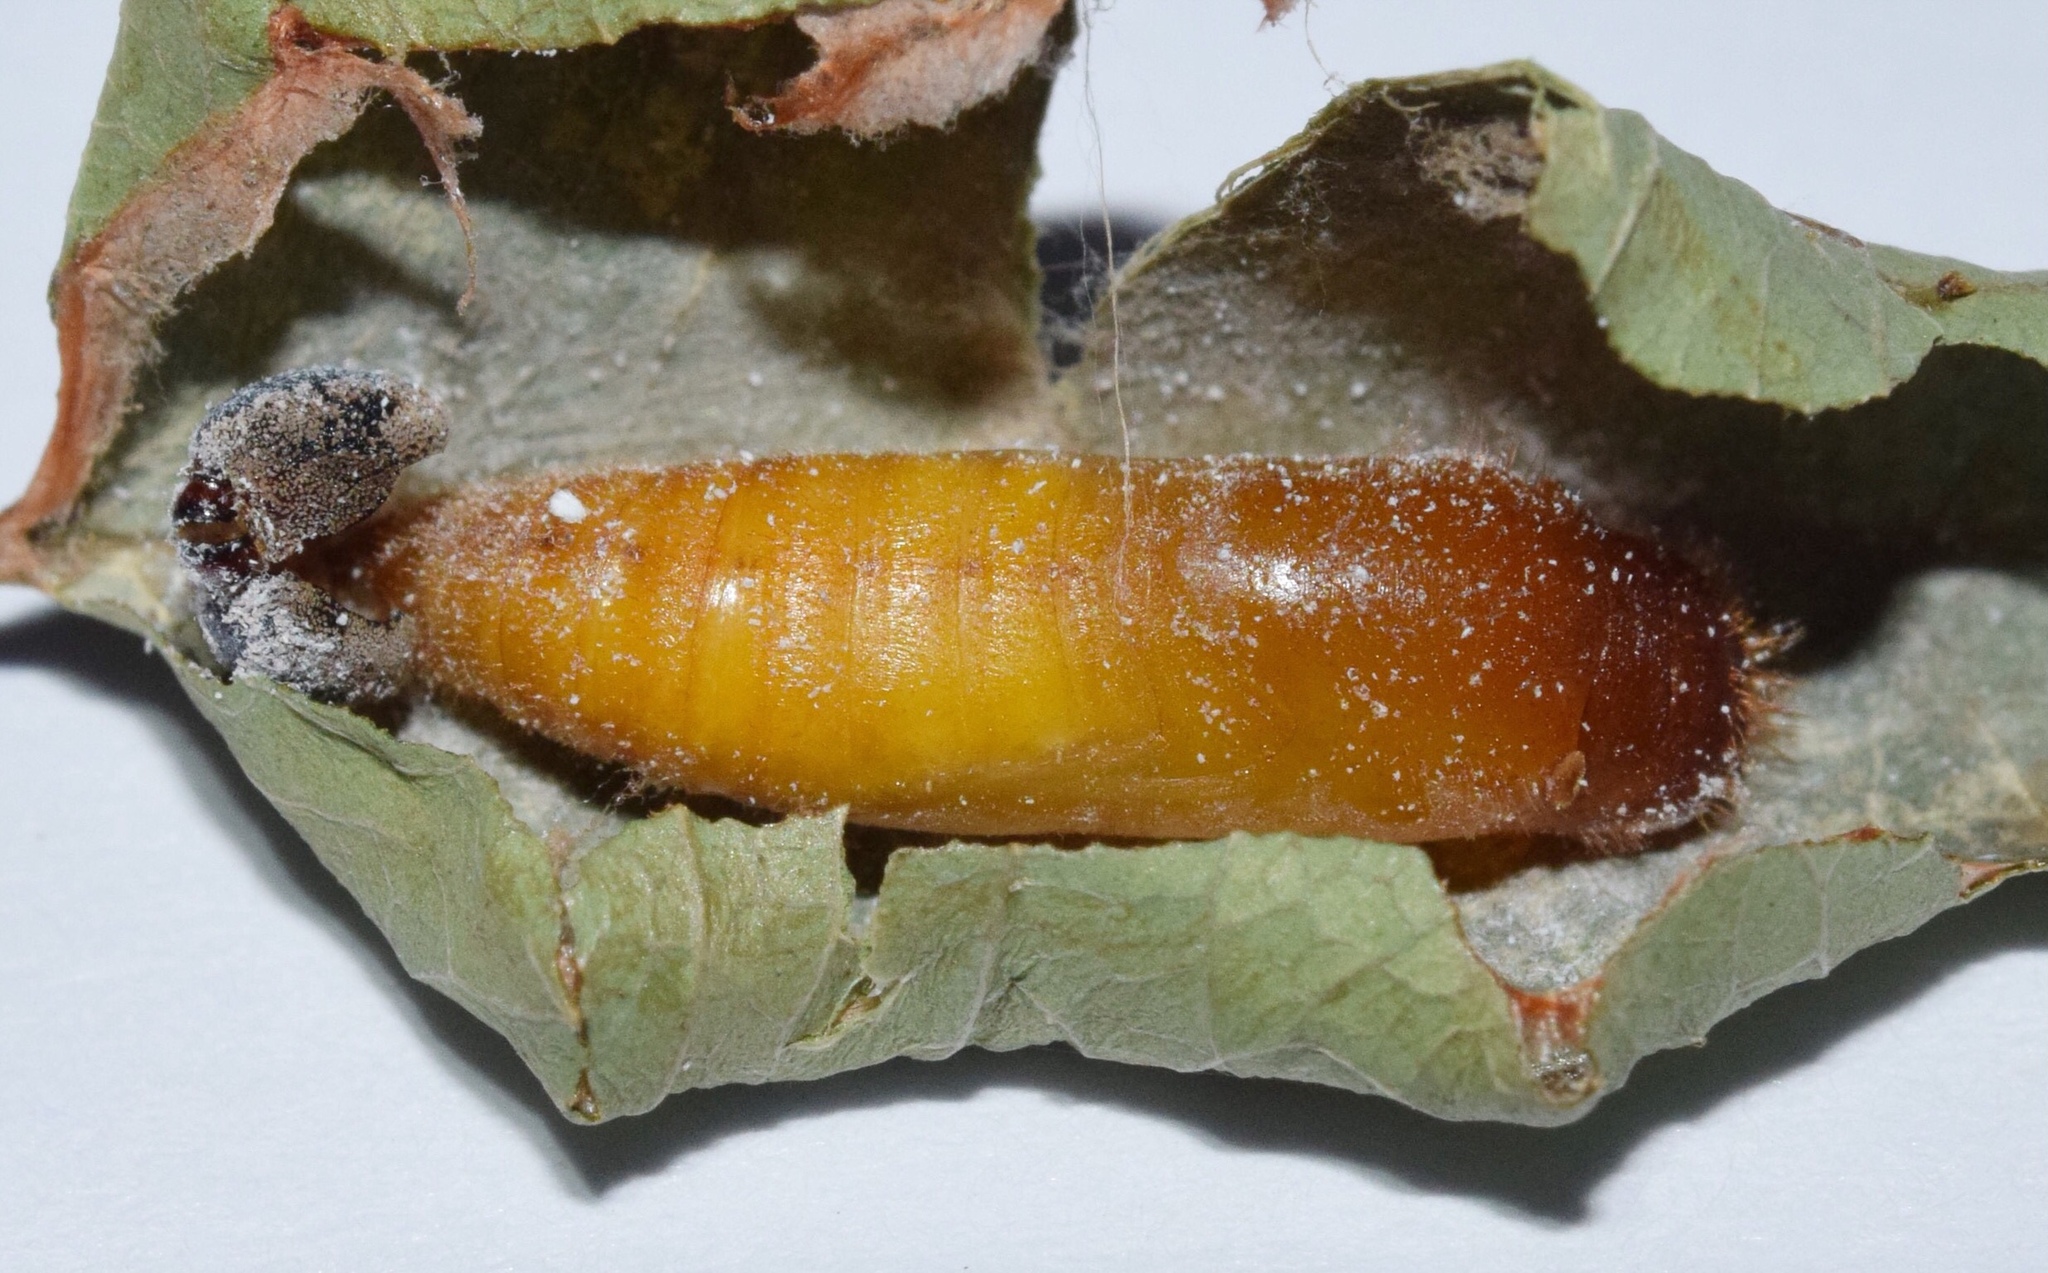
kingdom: Animalia
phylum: Arthropoda
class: Insecta
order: Lepidoptera
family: Hesperiidae
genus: Parosmodes
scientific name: Parosmodes morantii
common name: Morant's orange
